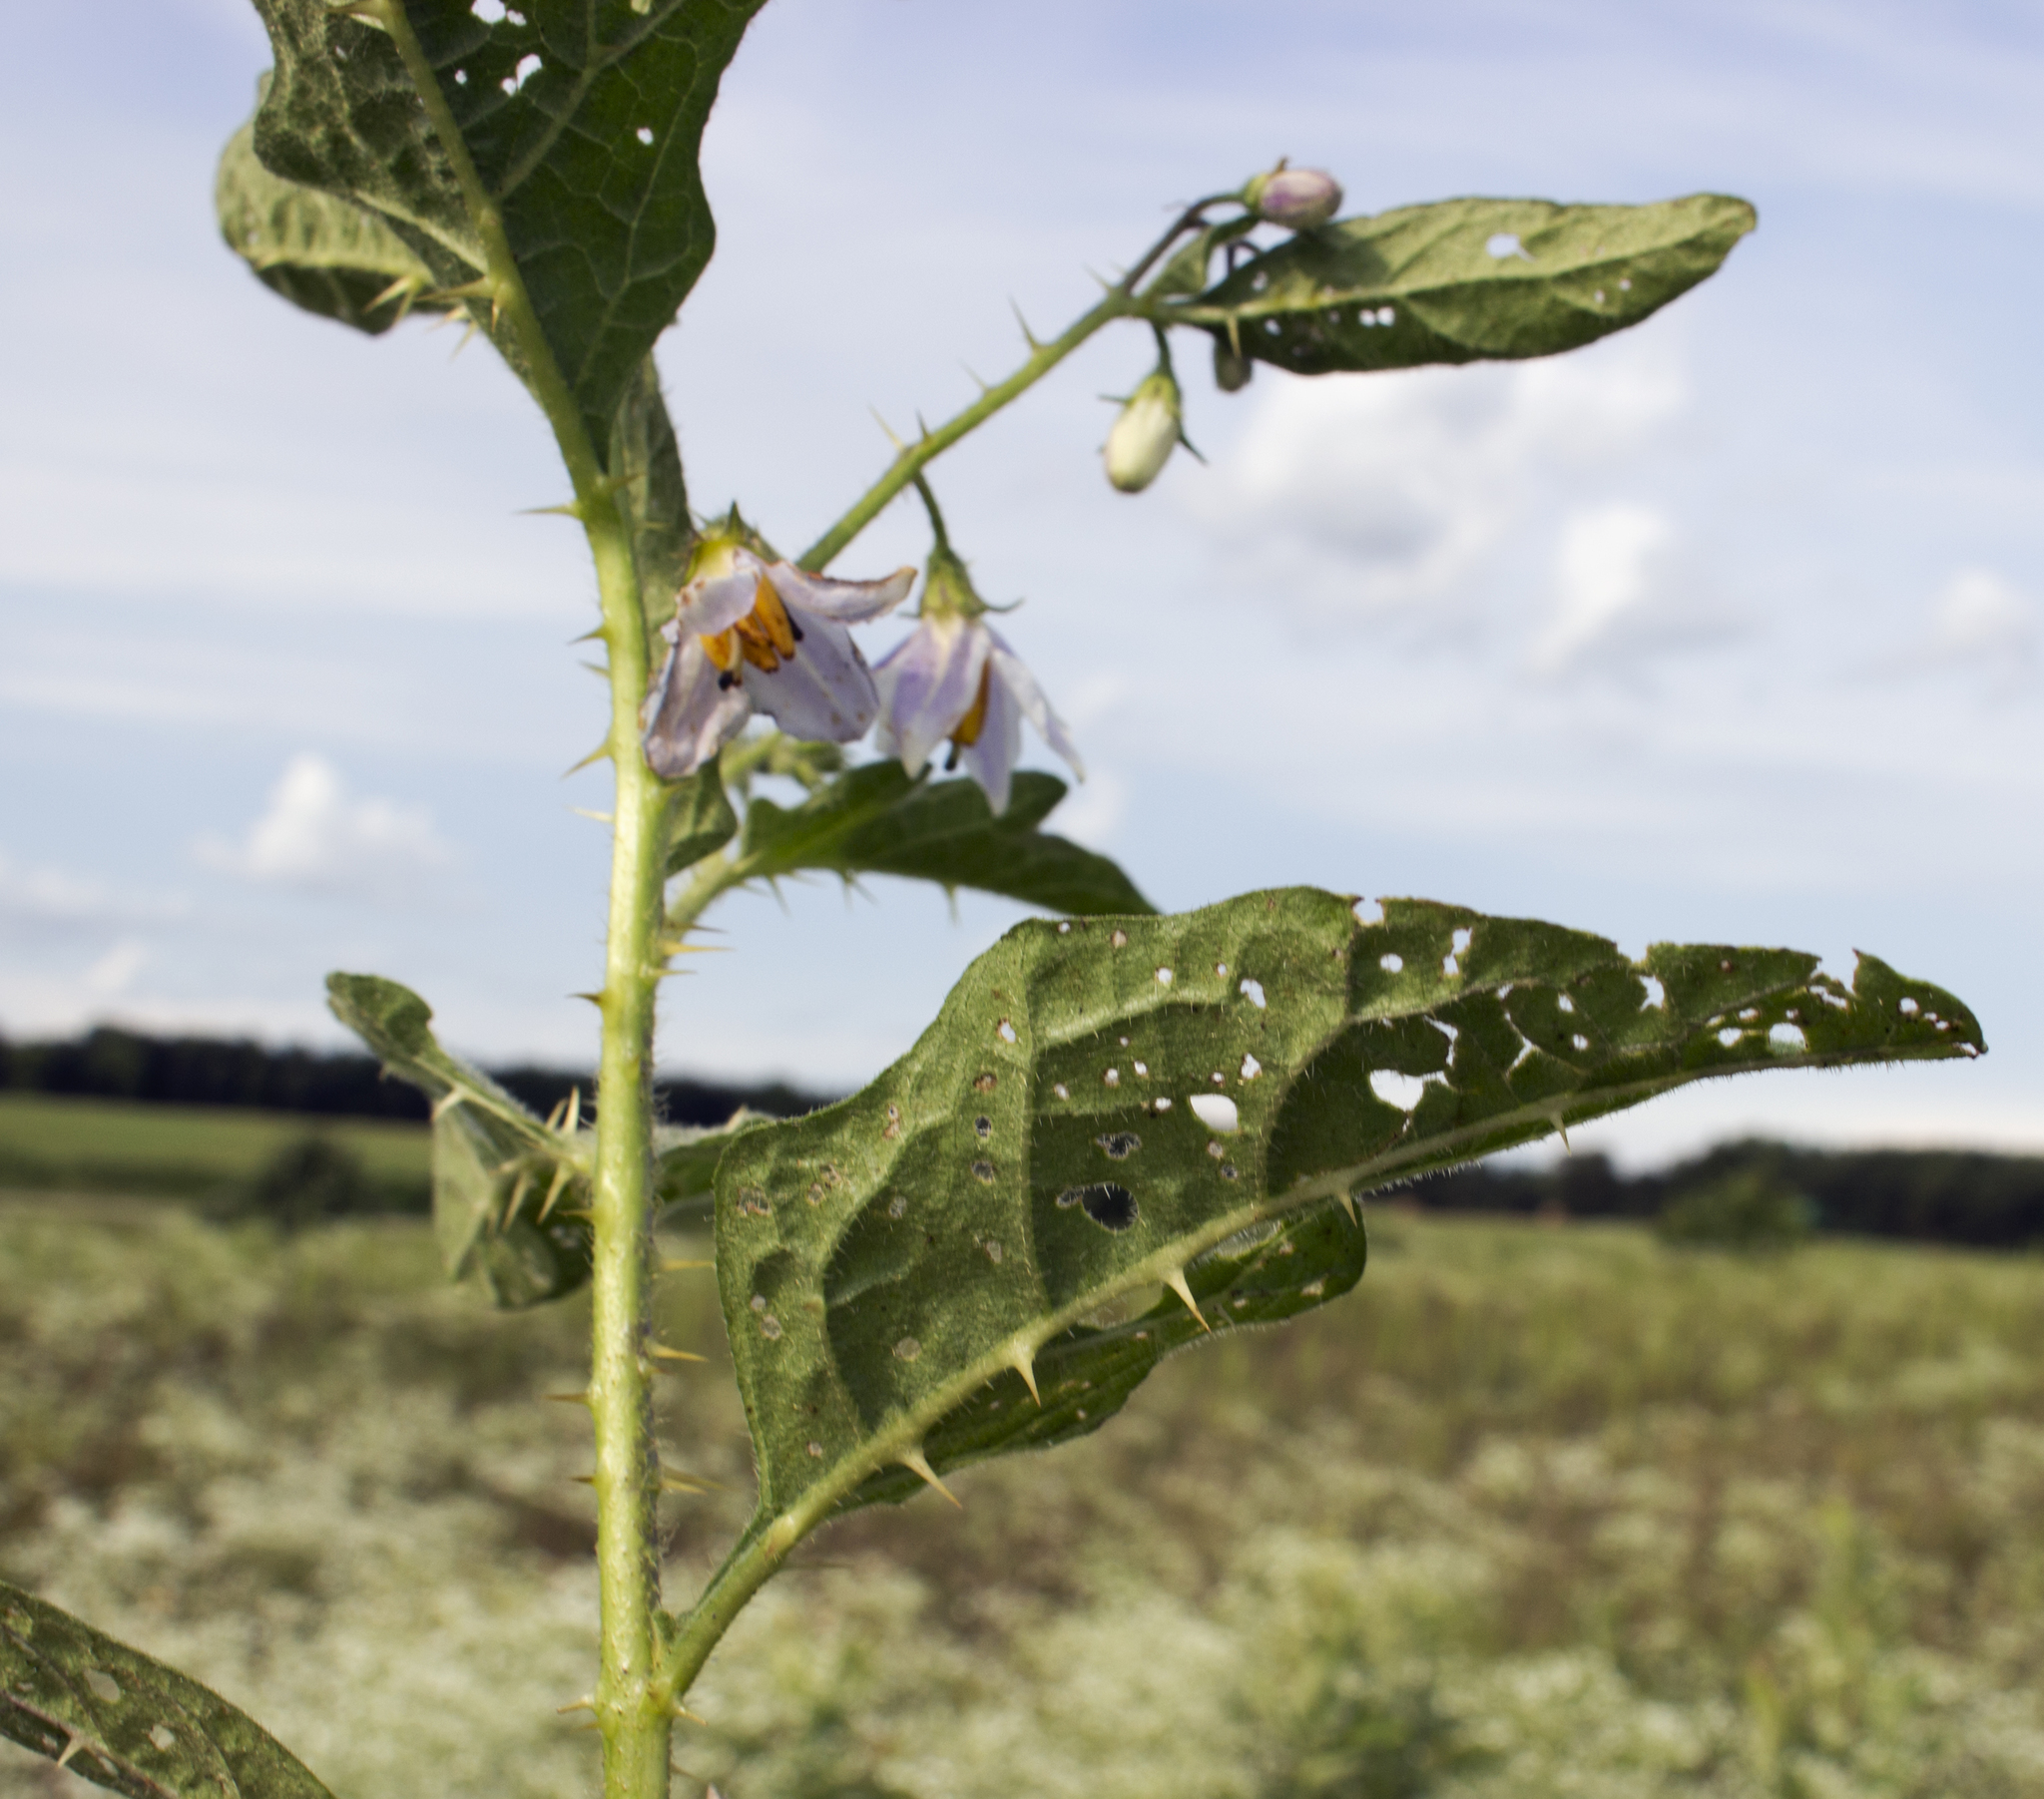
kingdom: Plantae
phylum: Tracheophyta
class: Magnoliopsida
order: Solanales
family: Solanaceae
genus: Solanum
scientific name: Solanum carolinense
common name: Horse-nettle
